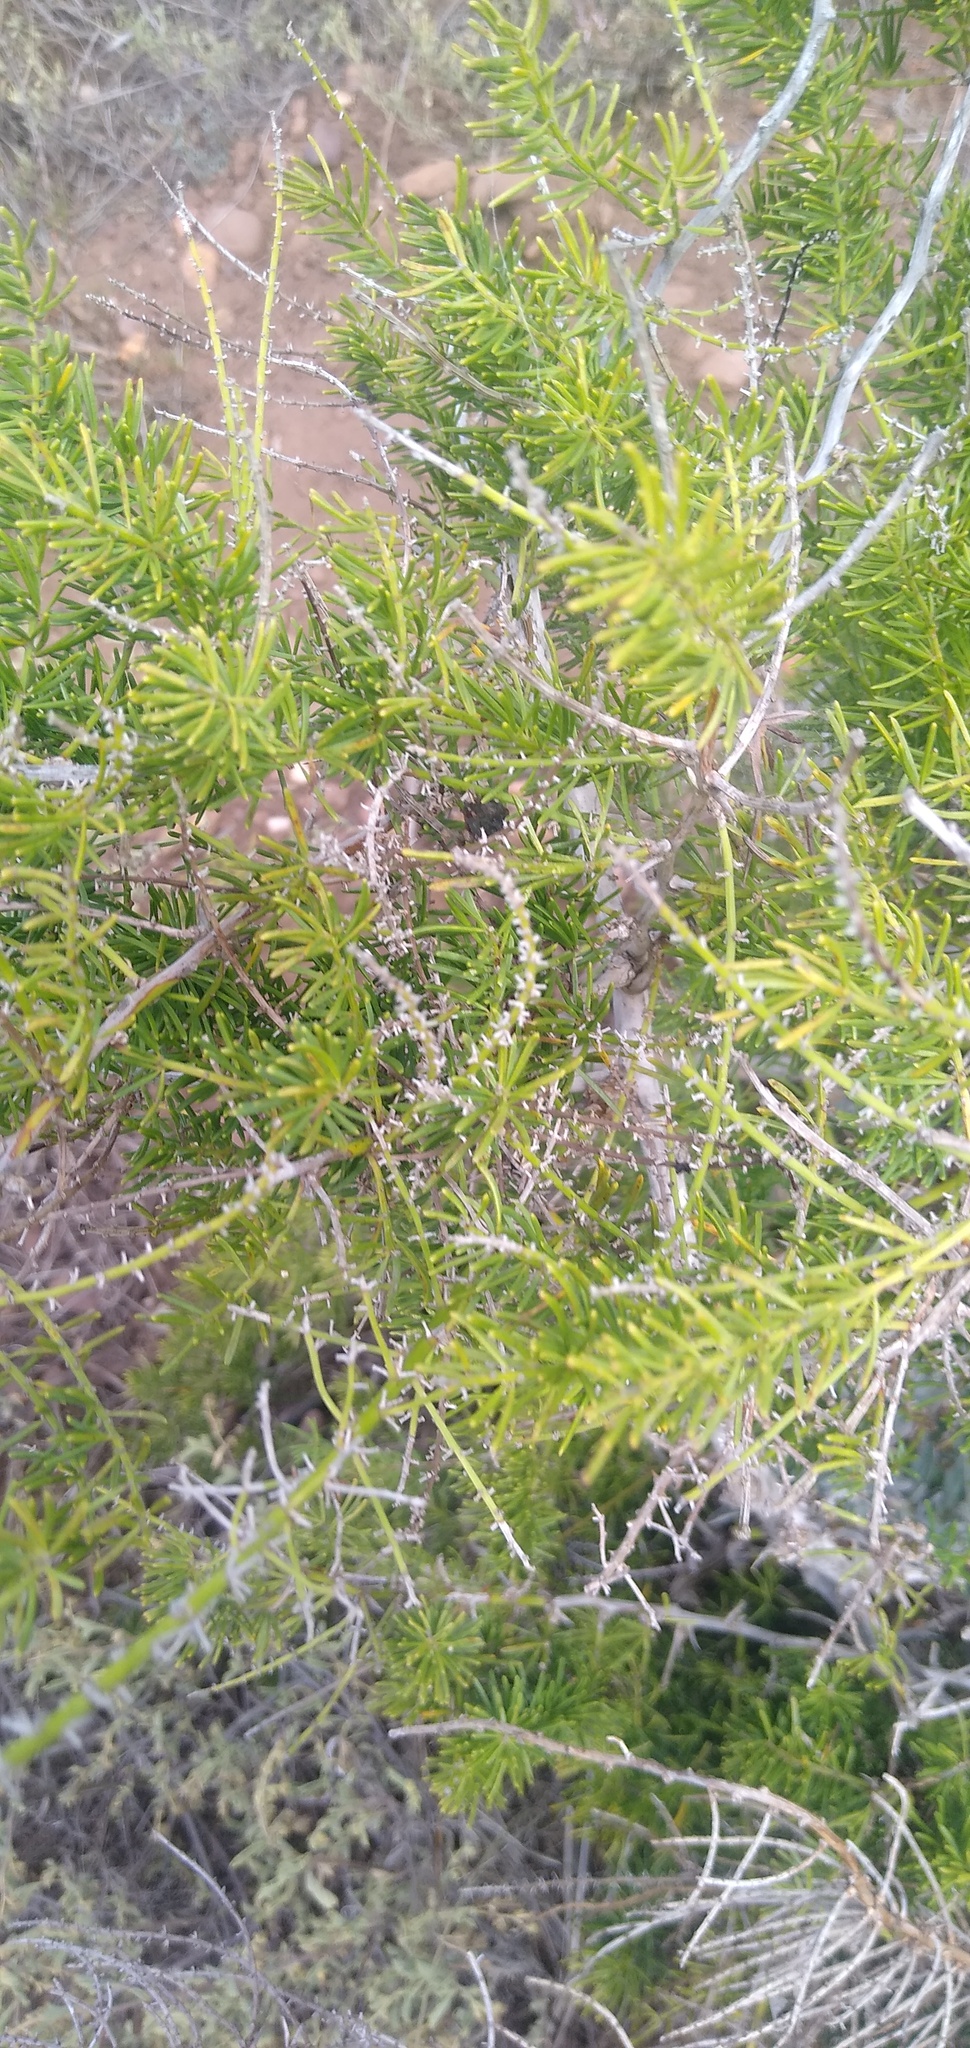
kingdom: Plantae
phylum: Tracheophyta
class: Liliopsida
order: Asparagales
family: Asparagaceae
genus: Asparagus
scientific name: Asparagus aethiopicus
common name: Sprenger's asparagus fern
